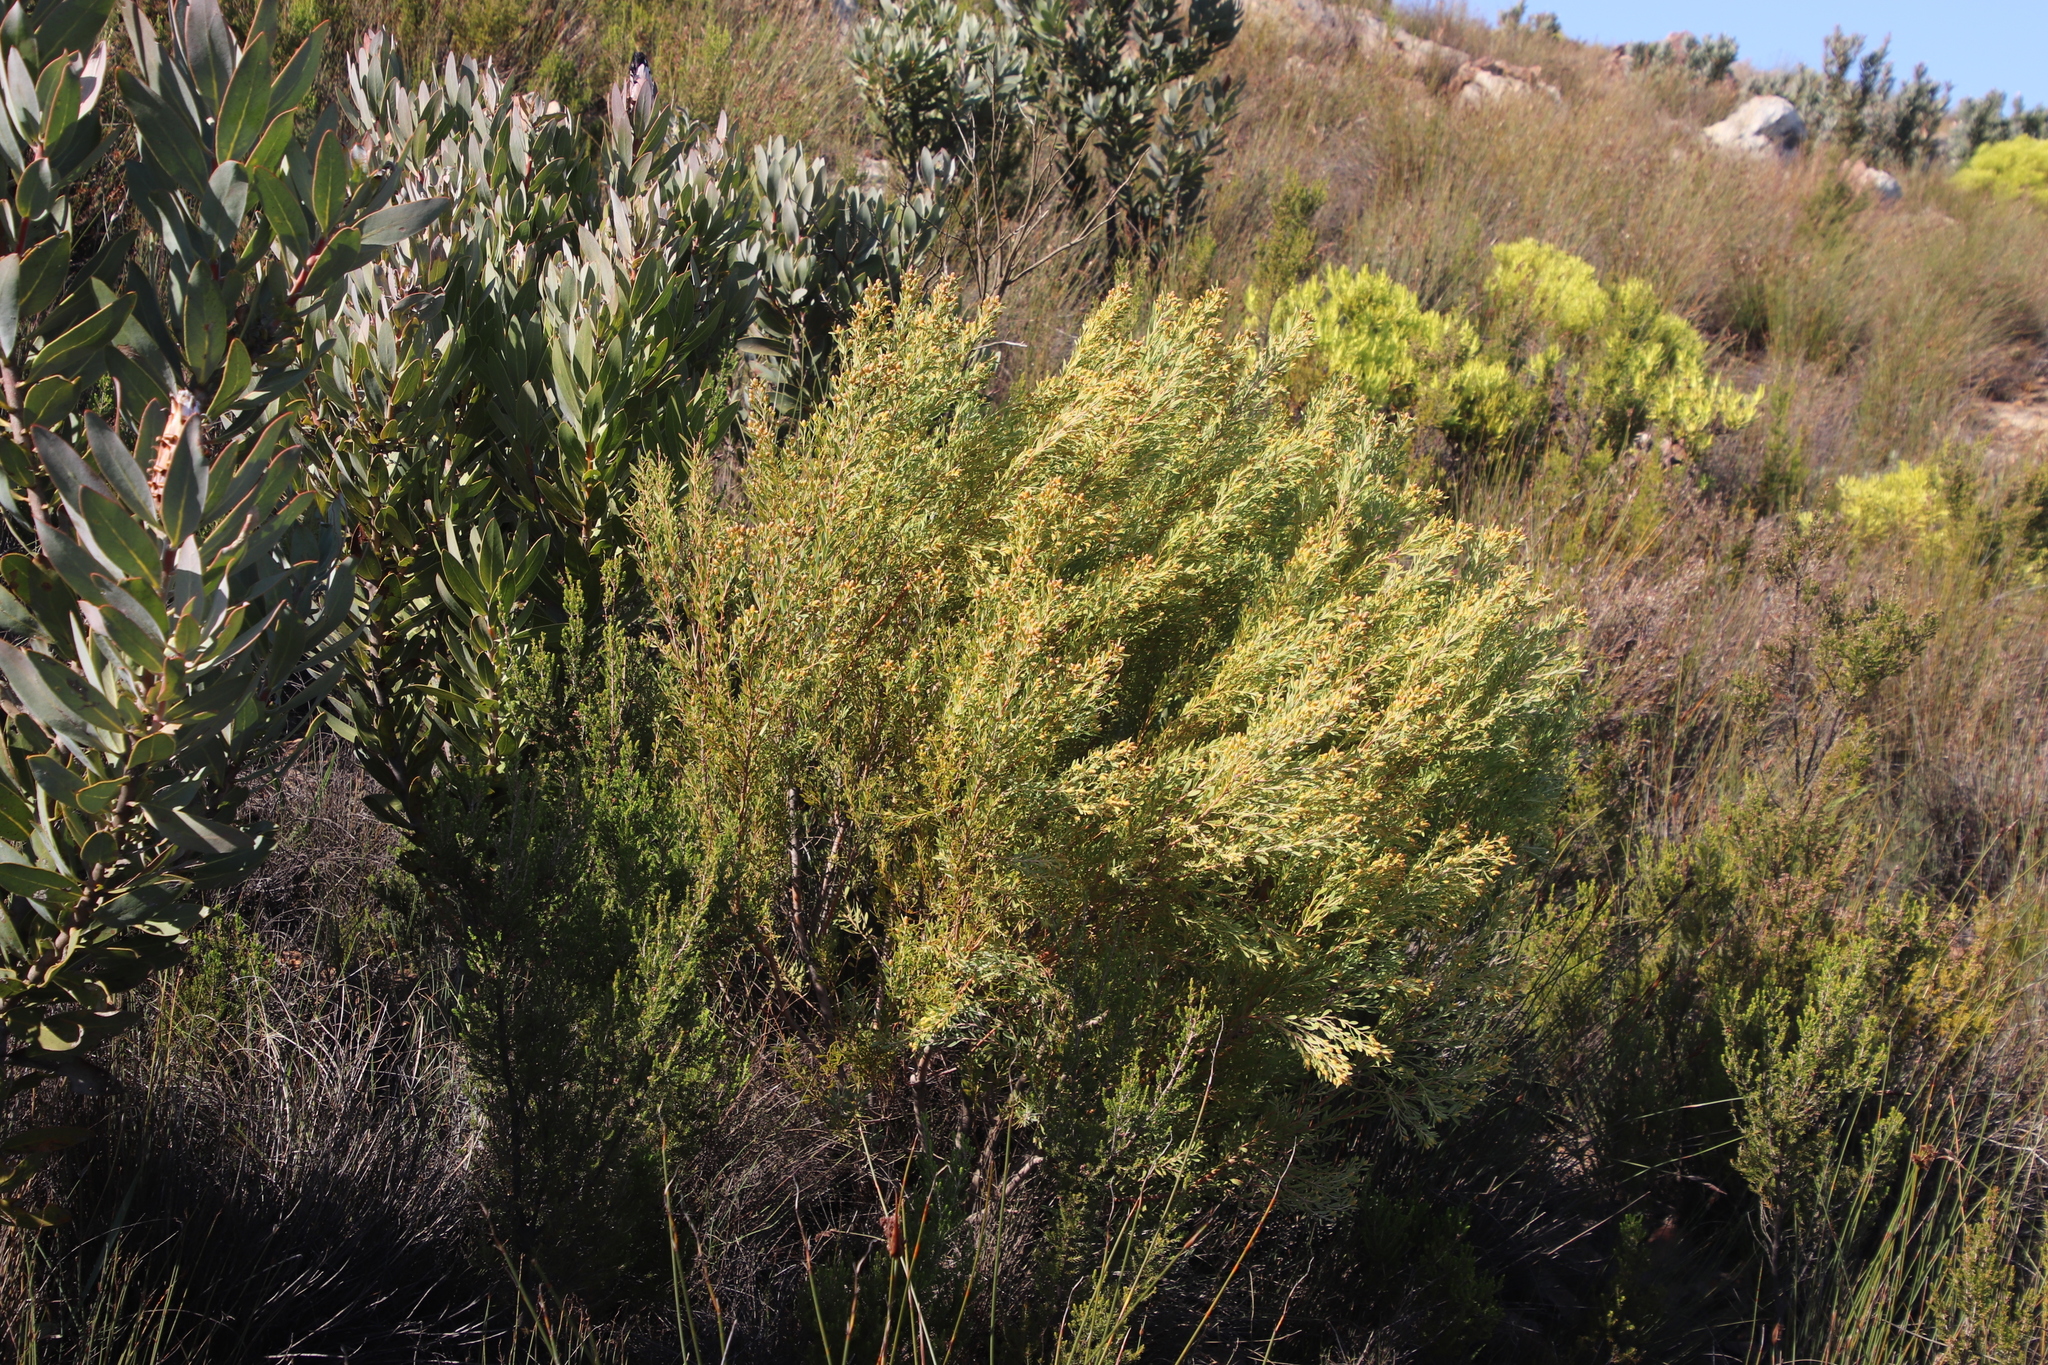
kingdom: Plantae
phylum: Tracheophyta
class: Magnoliopsida
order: Proteales
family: Proteaceae
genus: Leucadendron
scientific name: Leucadendron rubrum
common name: Spinning top
